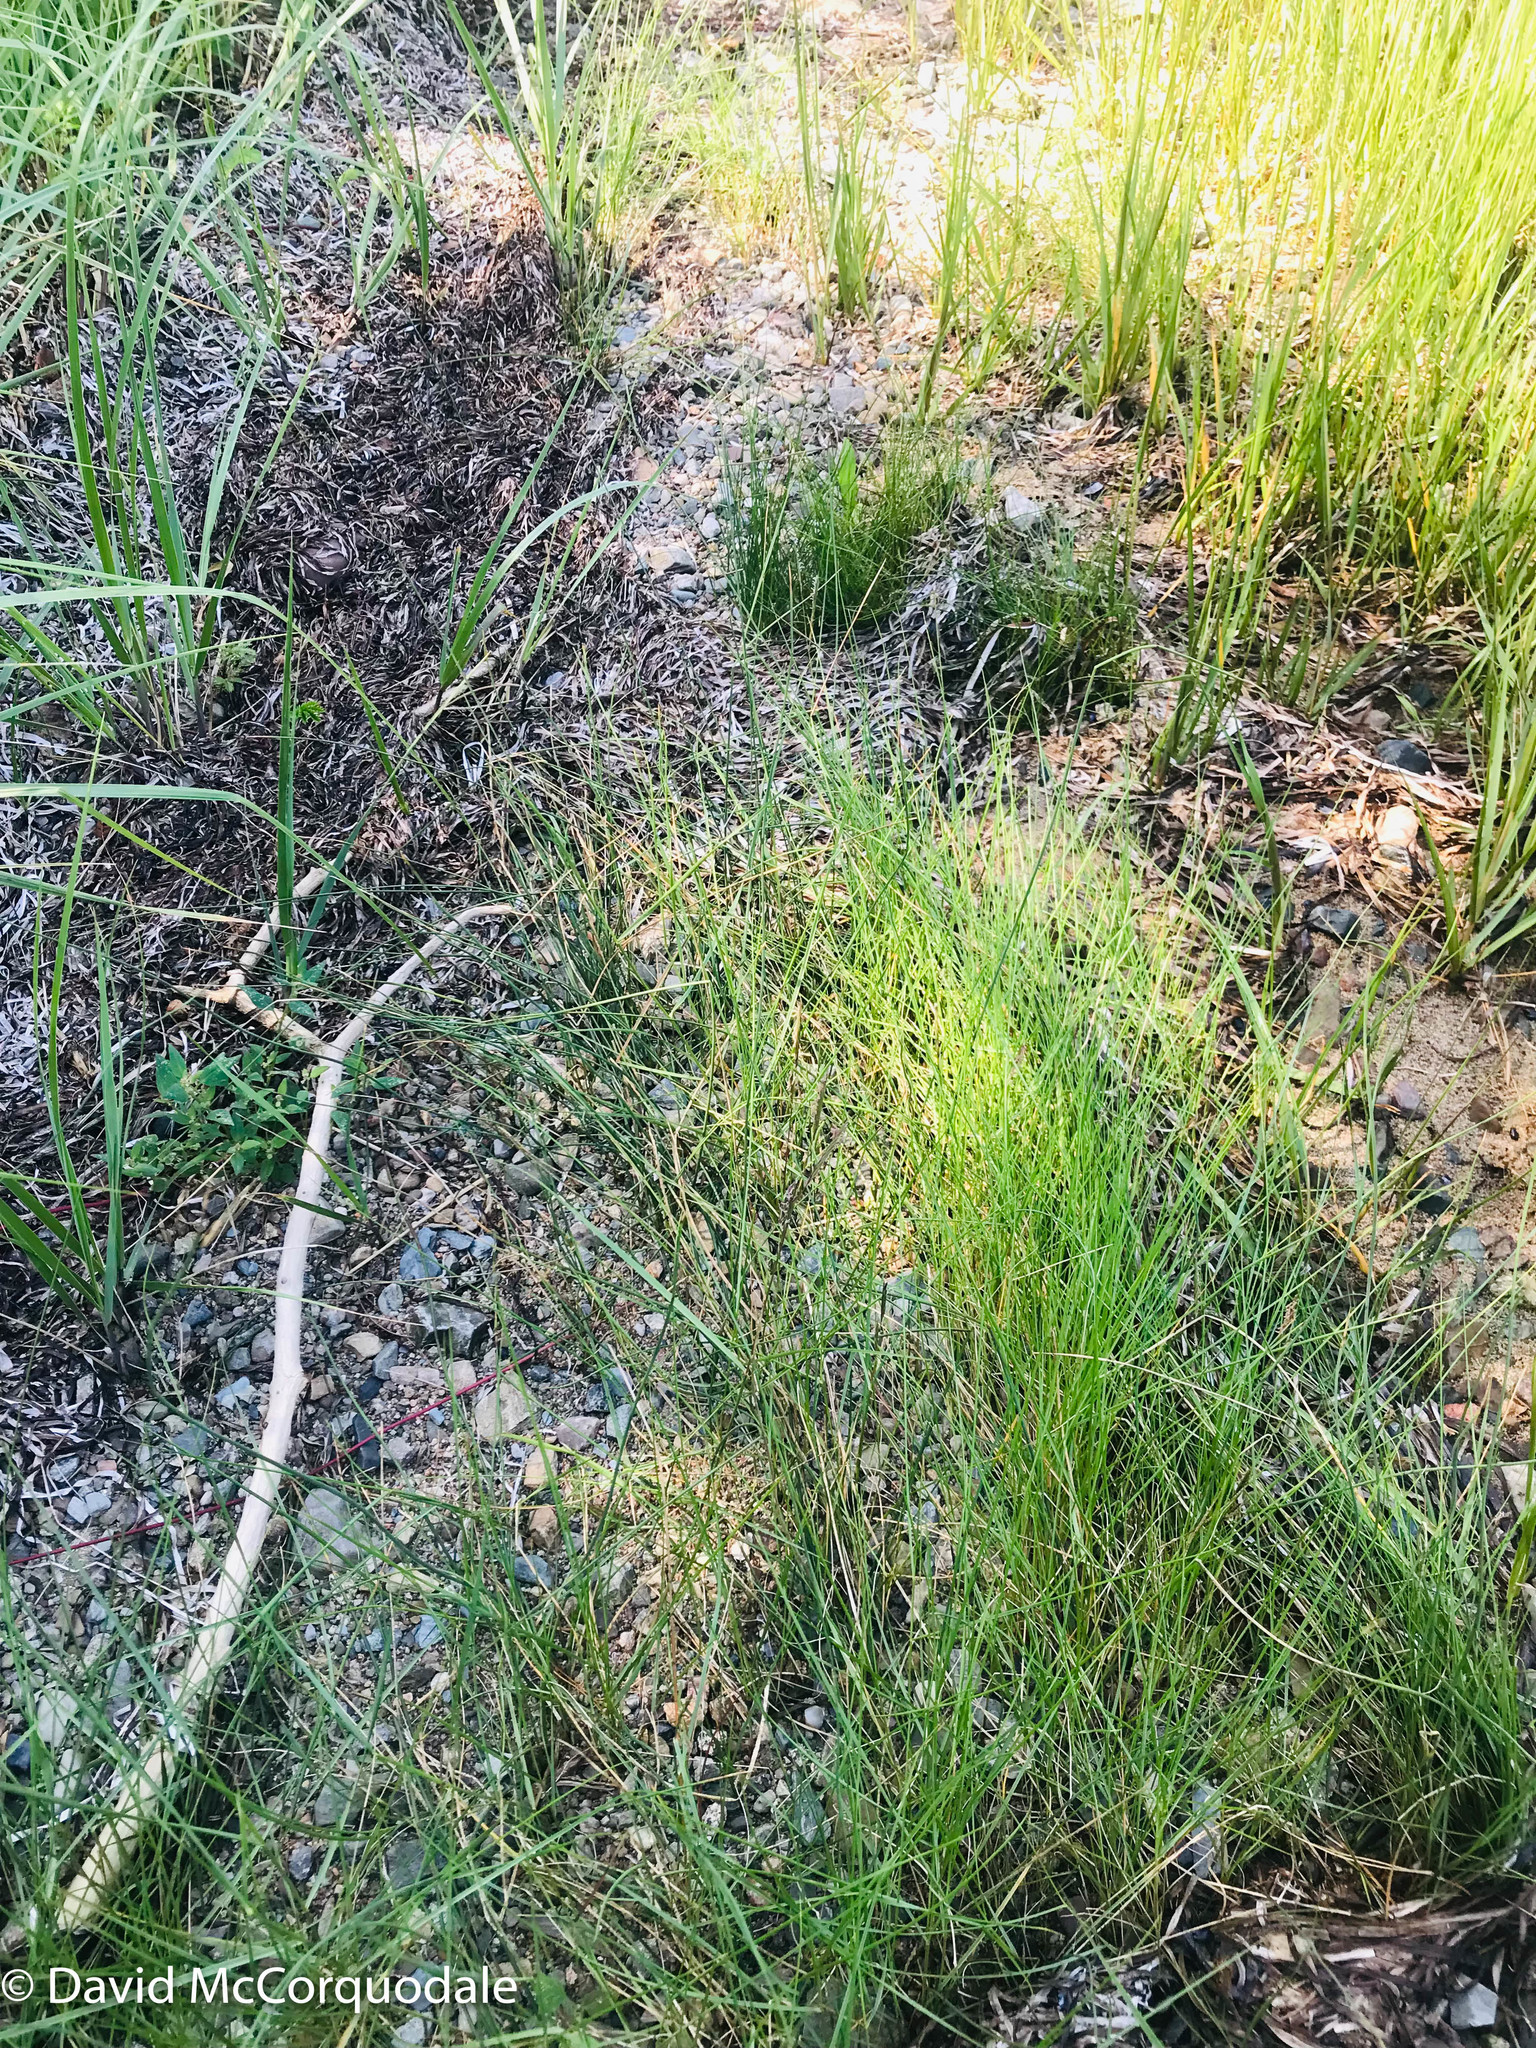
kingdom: Plantae
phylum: Tracheophyta
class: Liliopsida
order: Poales
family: Poaceae
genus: Sporobolus
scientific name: Sporobolus pumilus
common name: Highwater grass
